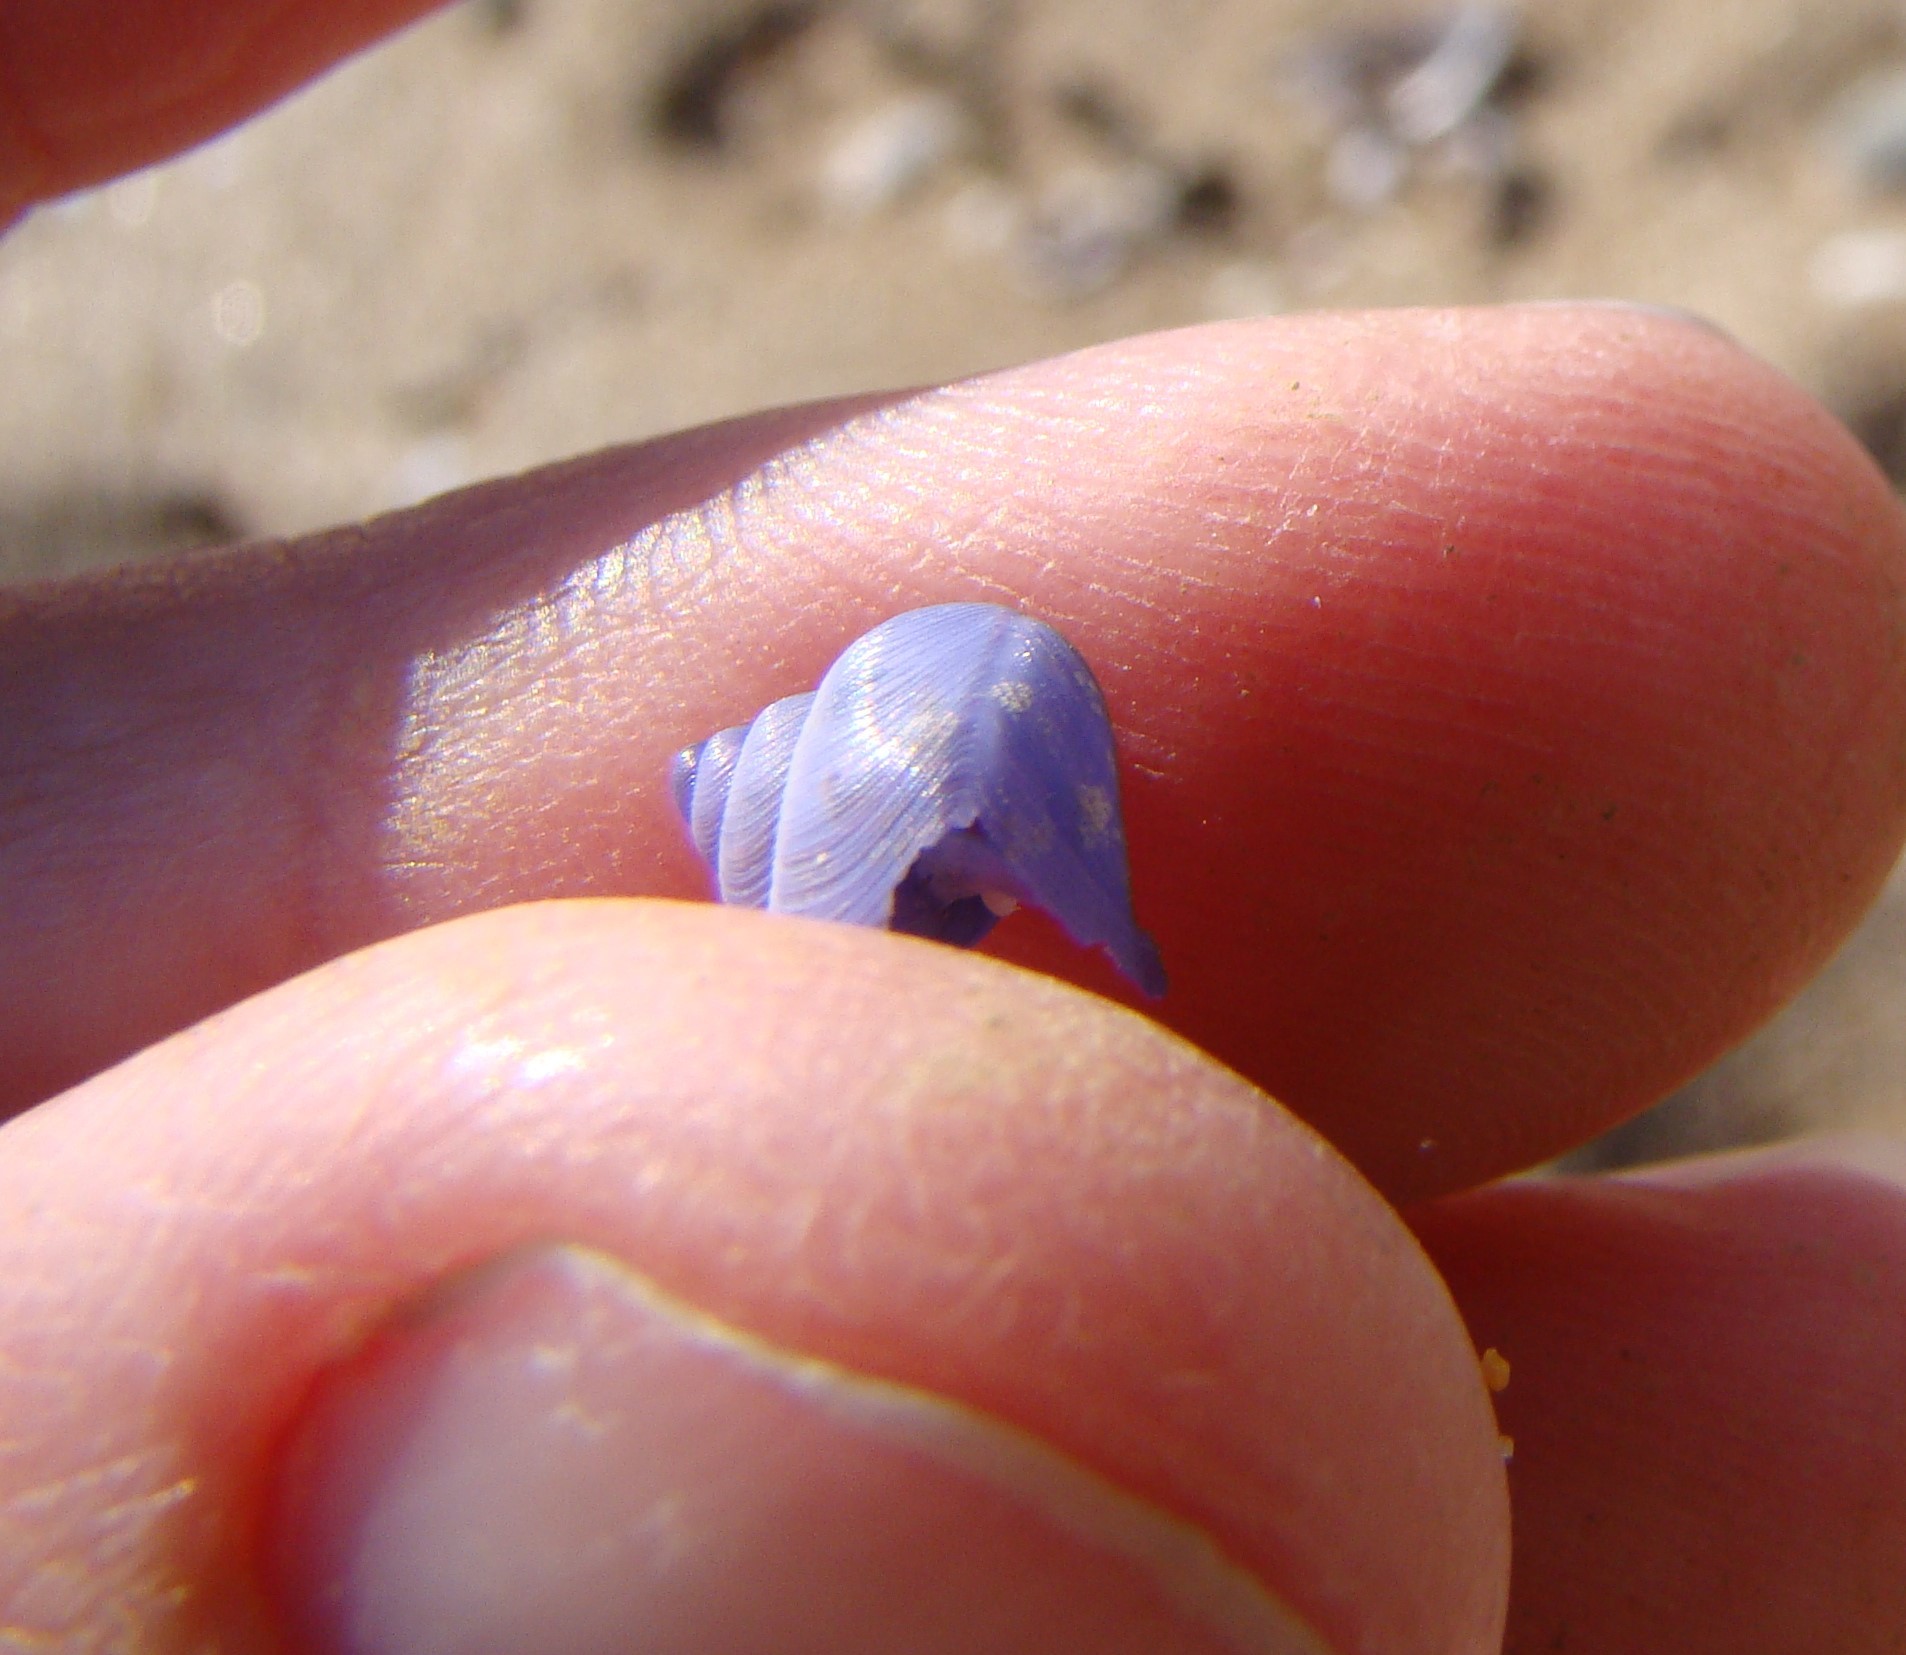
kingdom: Animalia
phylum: Mollusca
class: Gastropoda
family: Epitoniidae
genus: Janthina
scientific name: Janthina exigua
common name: Dwarf janthina
